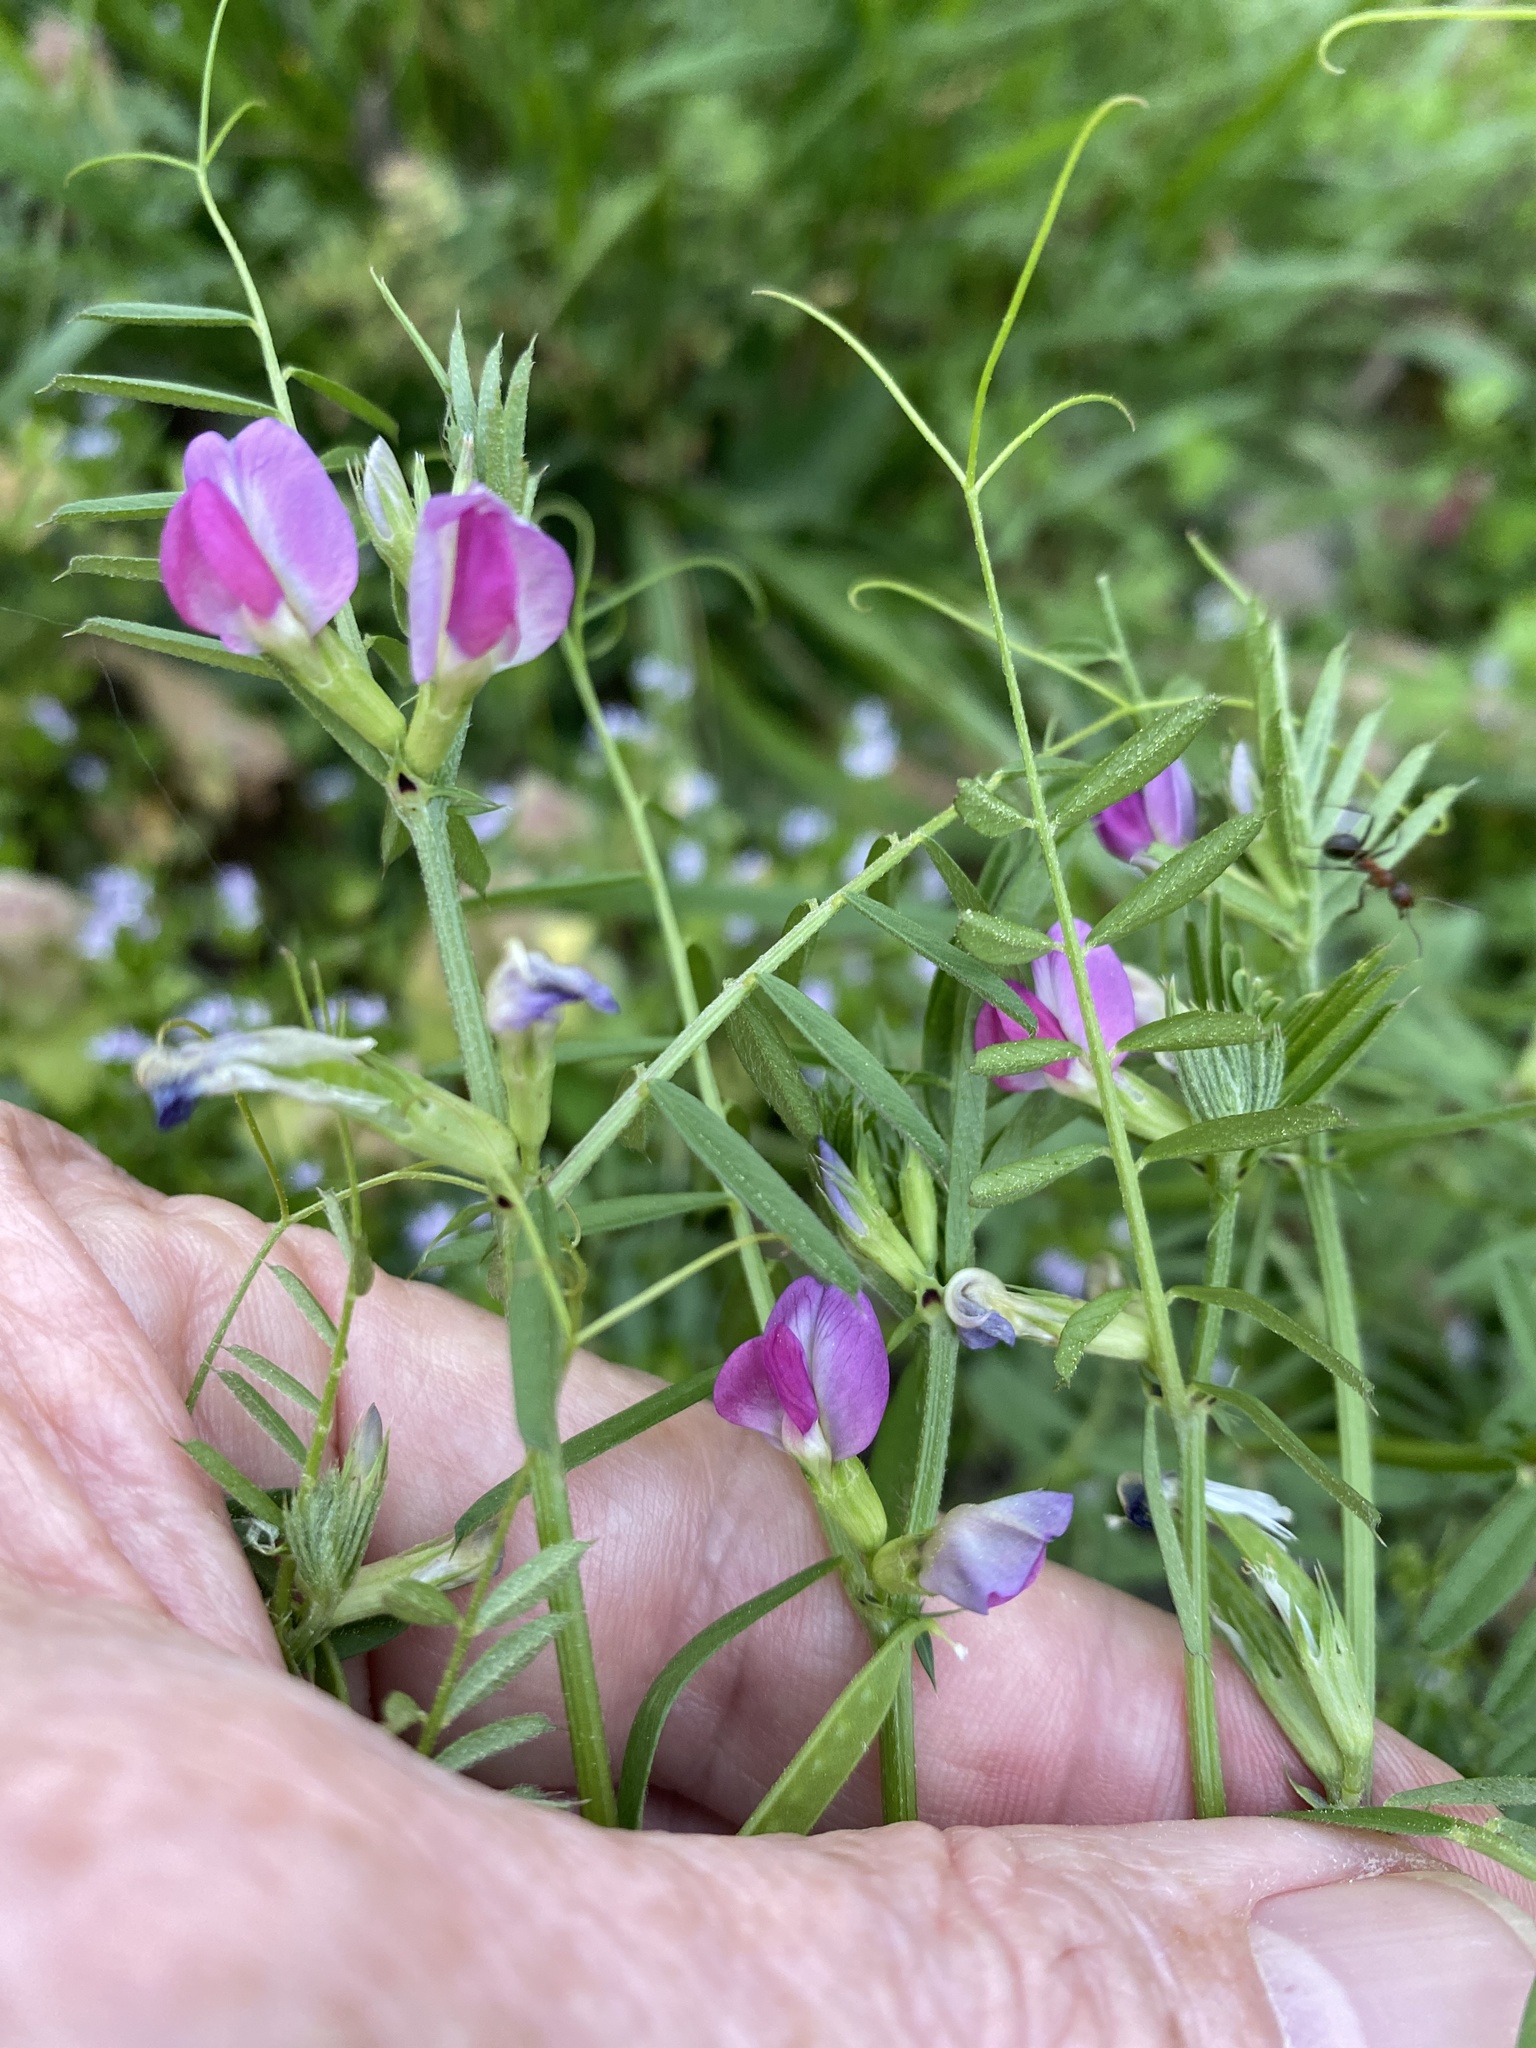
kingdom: Plantae
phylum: Tracheophyta
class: Magnoliopsida
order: Fabales
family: Fabaceae
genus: Vicia
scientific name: Vicia sativa
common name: Garden vetch
